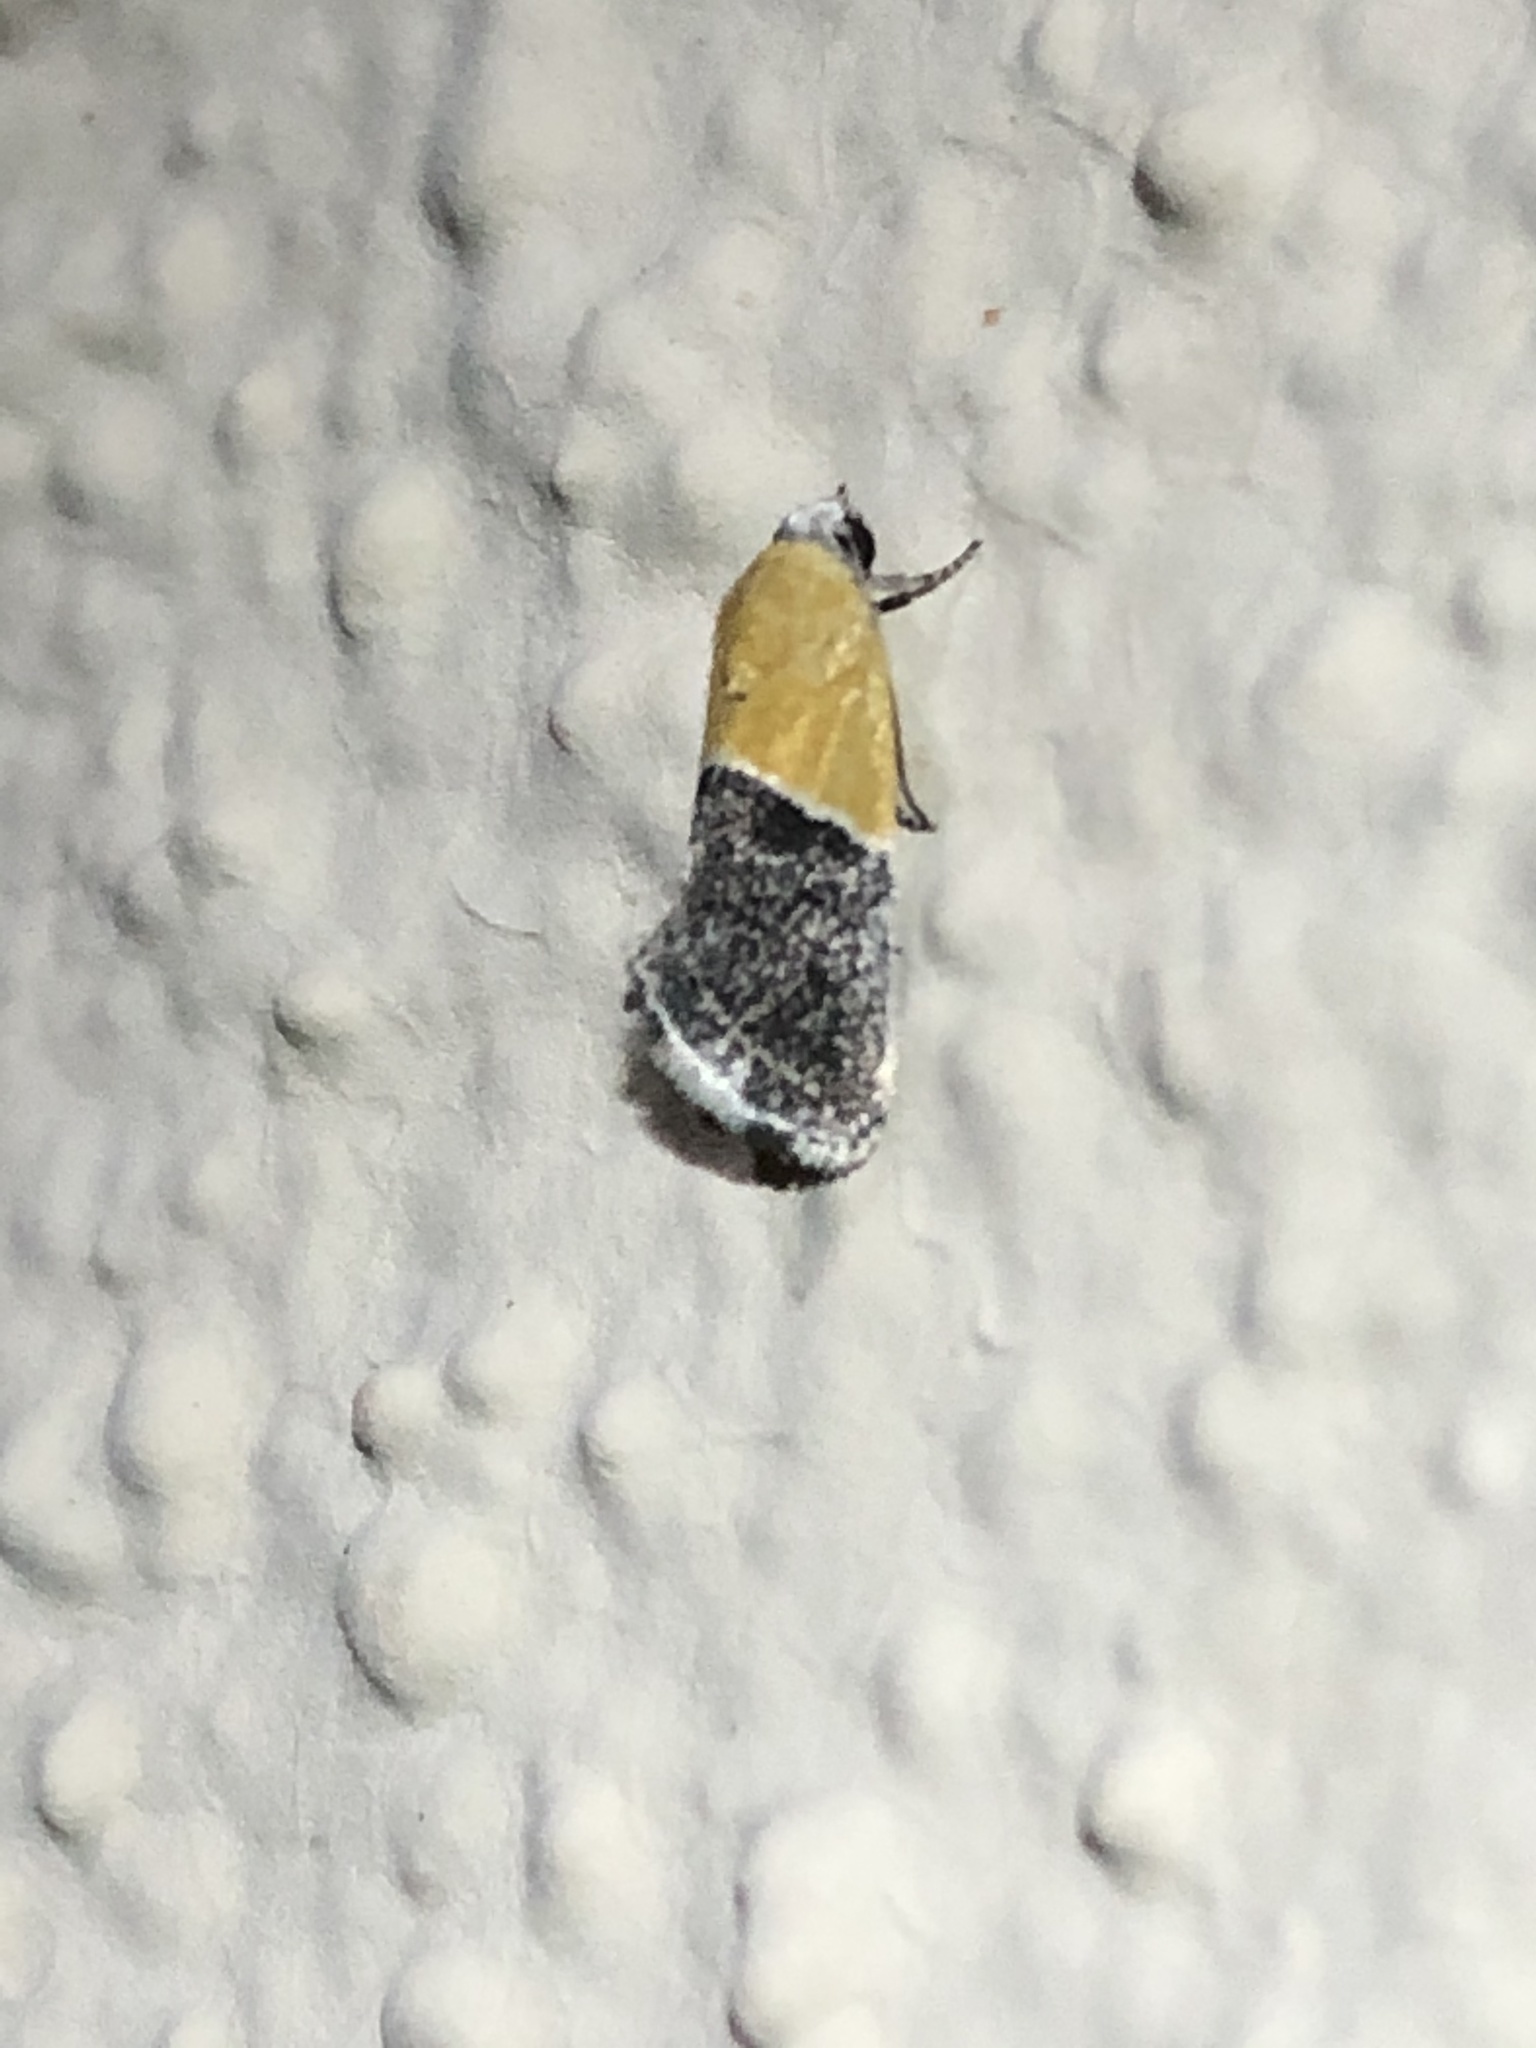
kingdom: Animalia
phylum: Arthropoda
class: Insecta
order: Lepidoptera
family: Noctuidae
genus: Acontia
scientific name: Acontia clausula
